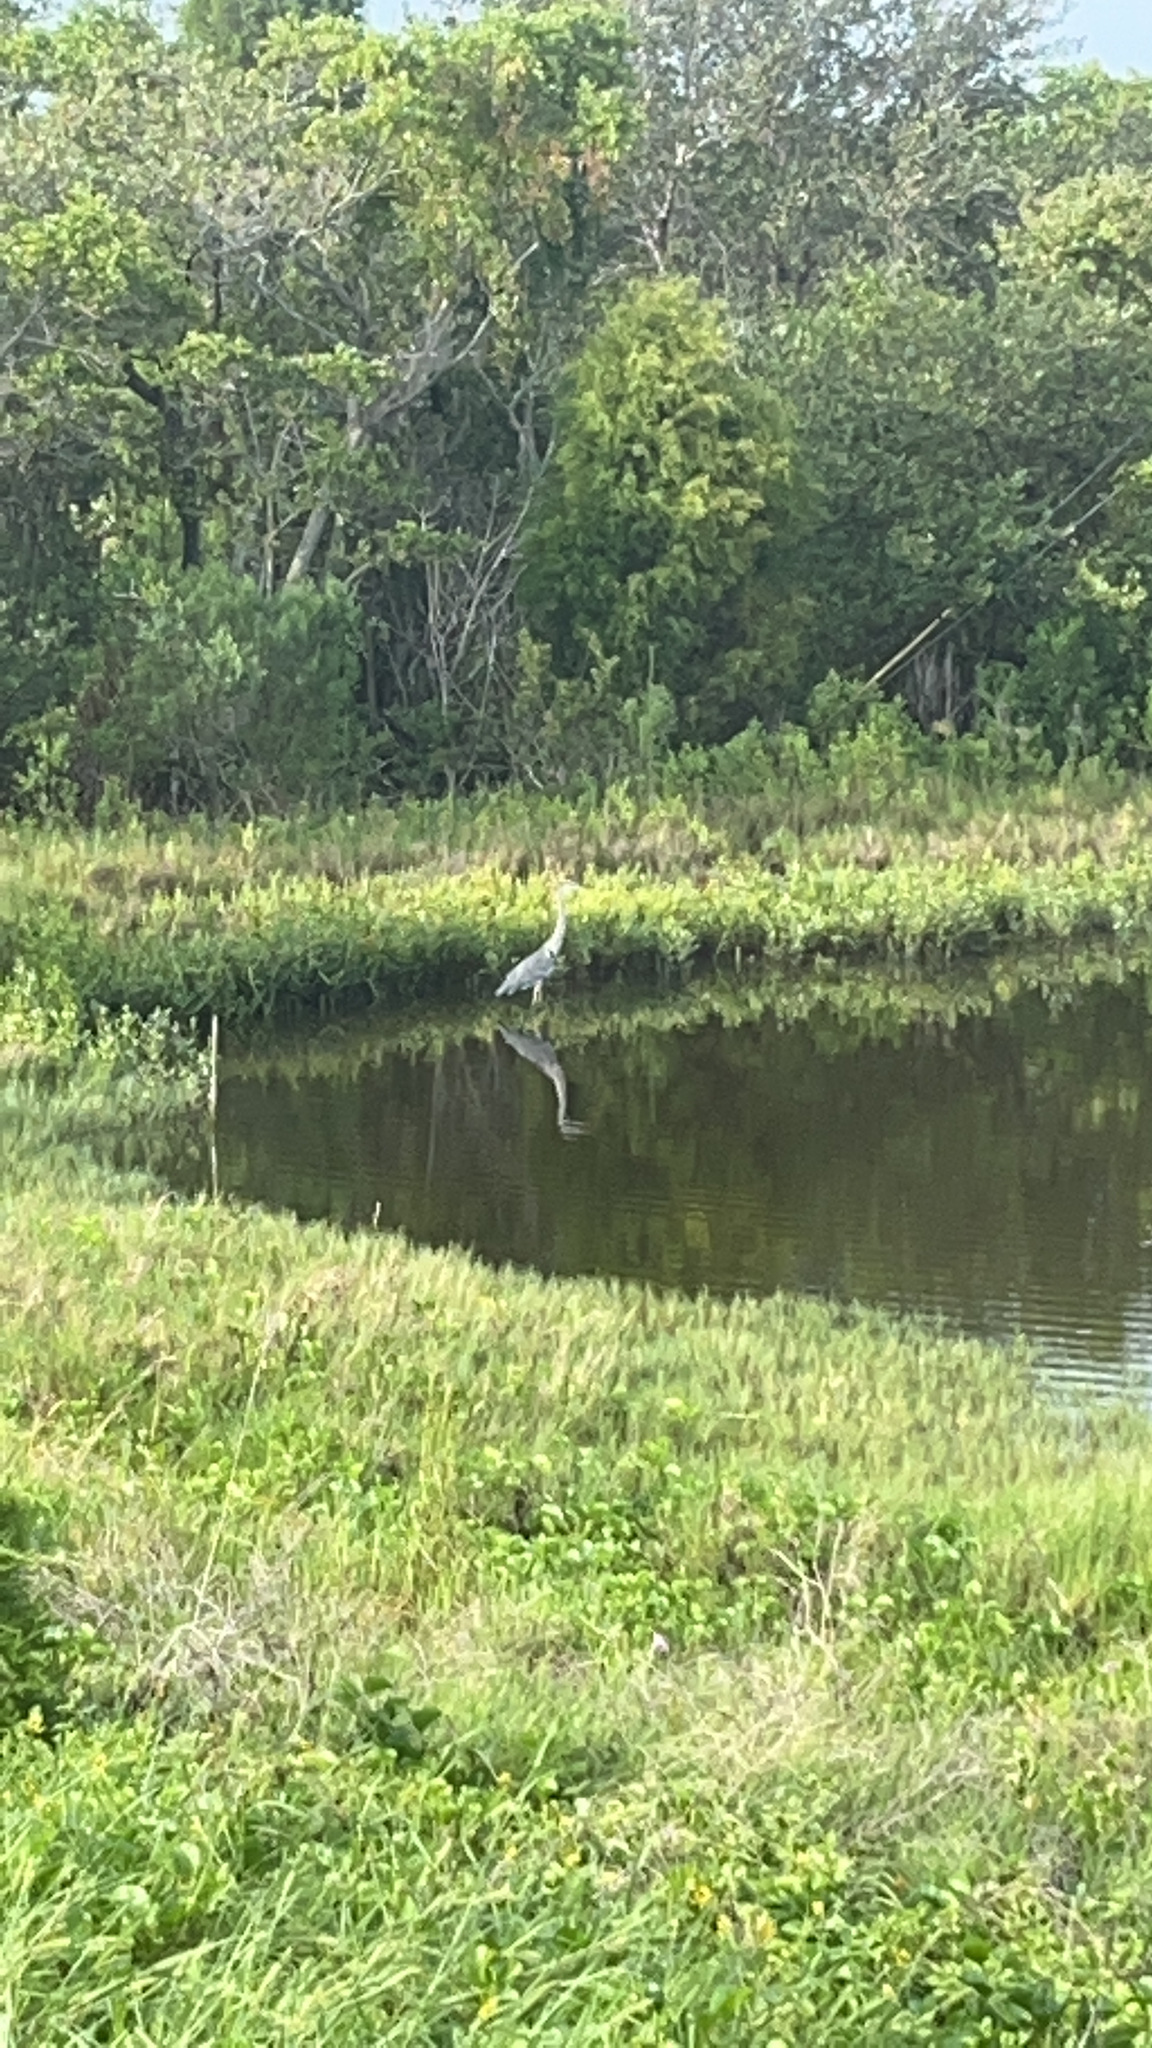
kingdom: Animalia
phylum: Chordata
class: Aves
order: Pelecaniformes
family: Ardeidae
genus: Ardea
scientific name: Ardea herodias
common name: Great blue heron
